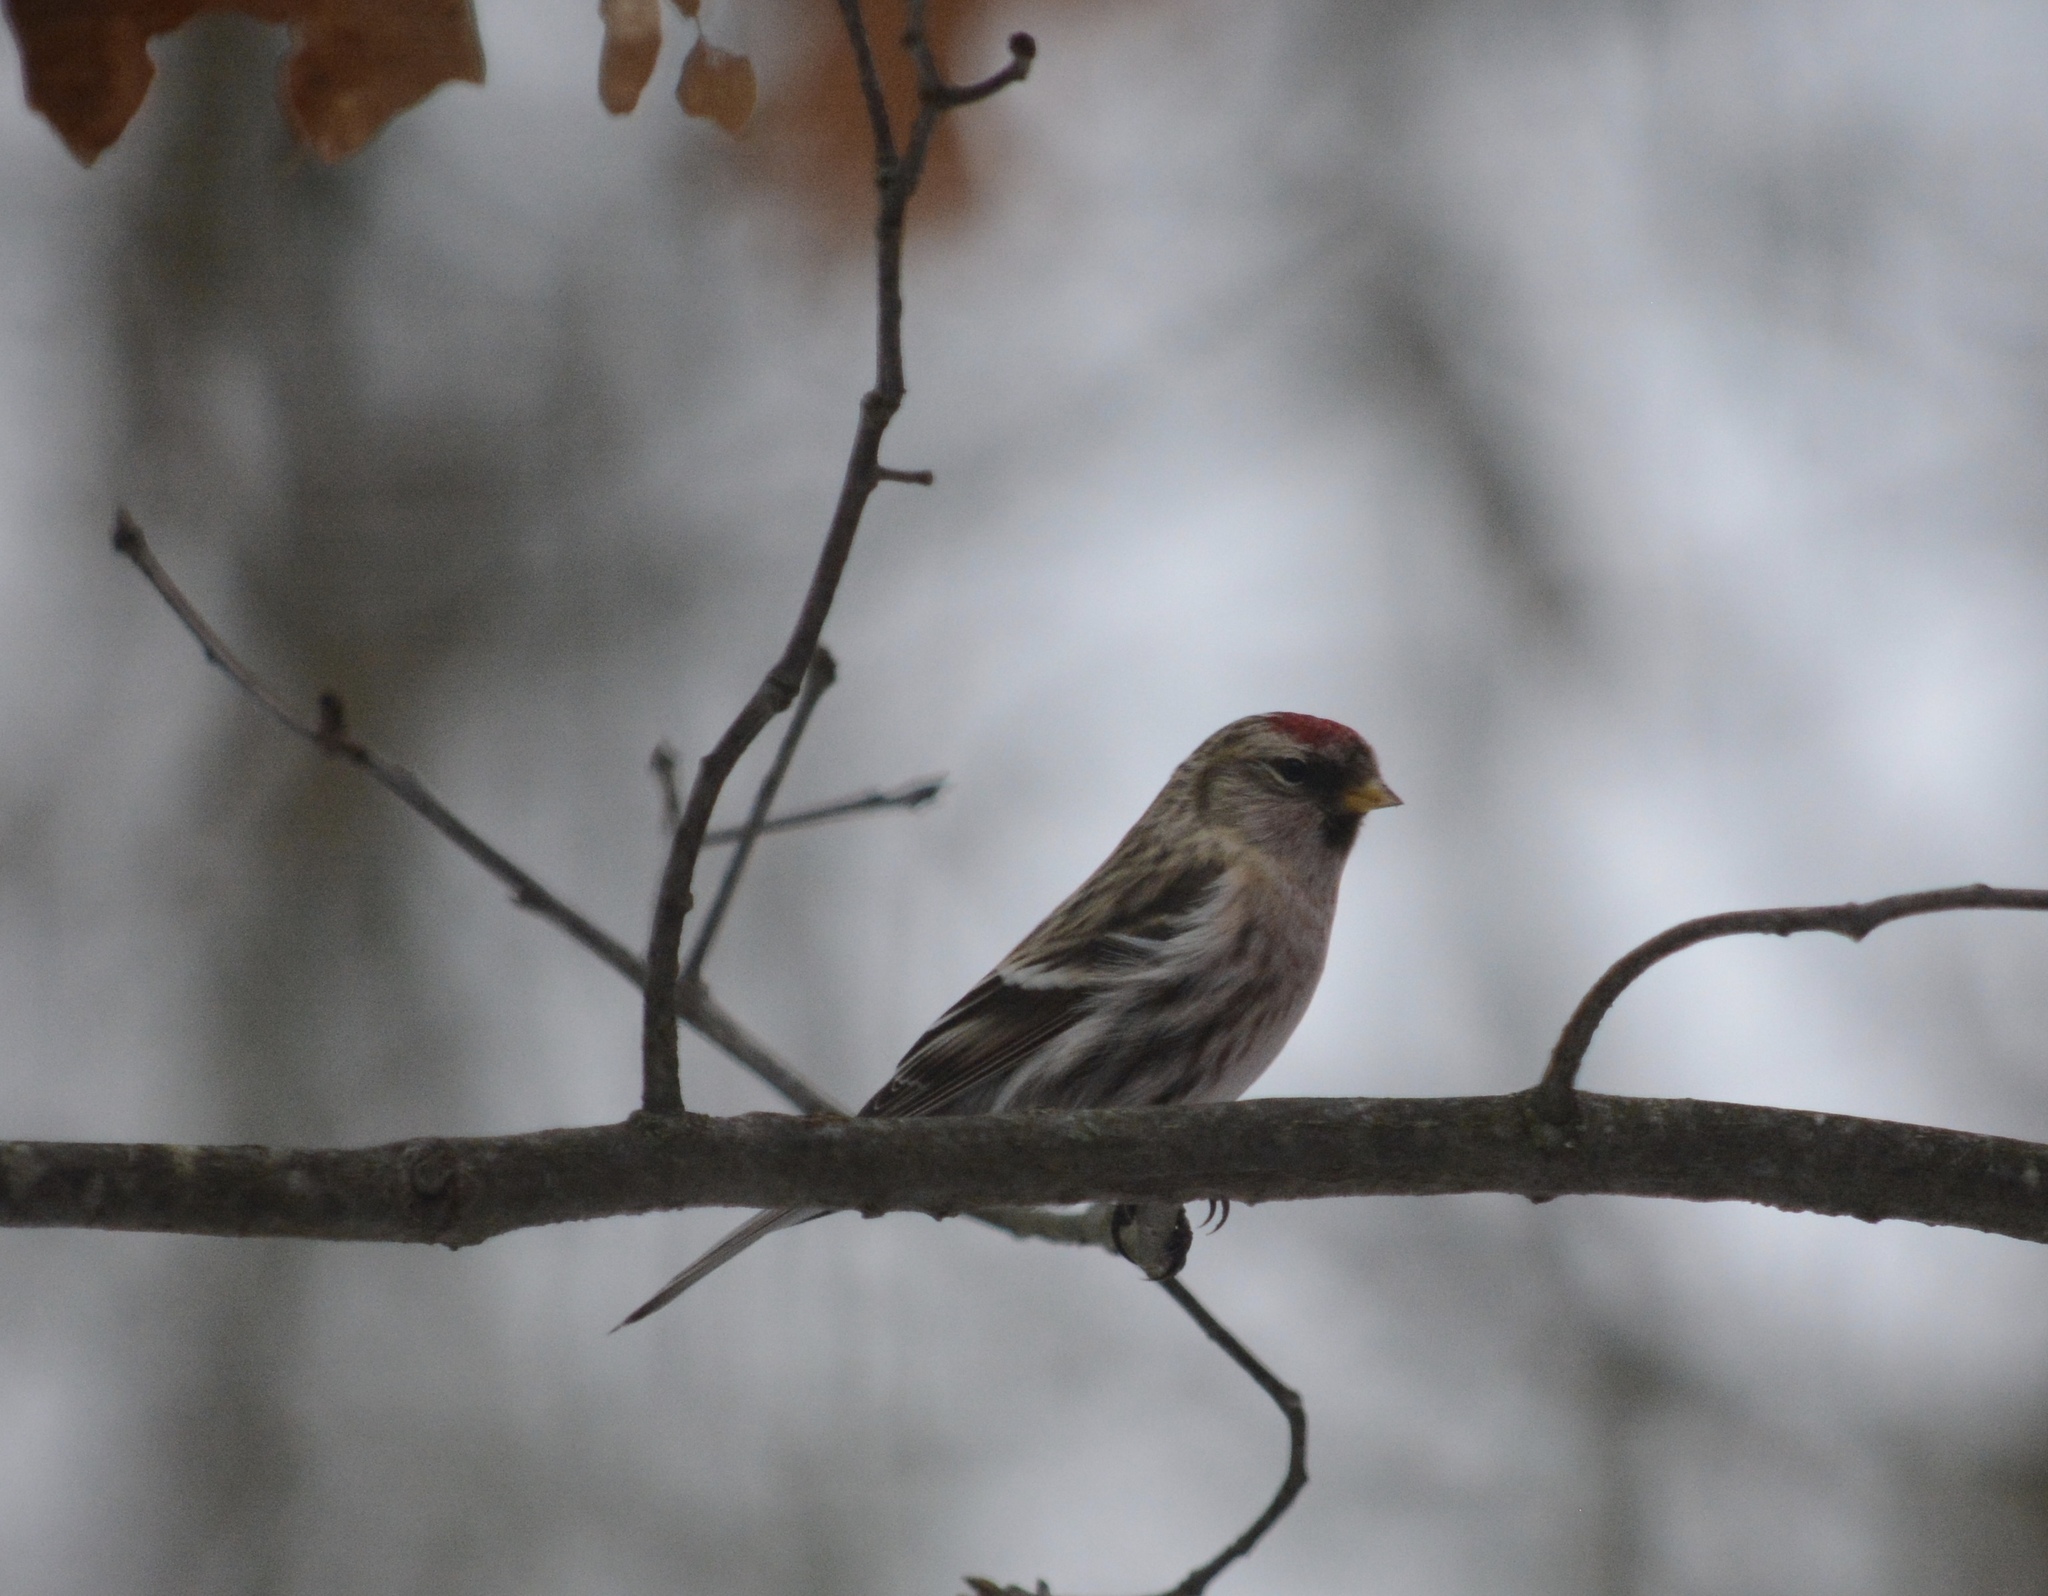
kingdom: Animalia
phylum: Chordata
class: Aves
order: Passeriformes
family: Fringillidae
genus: Acanthis
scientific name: Acanthis flammea
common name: Common redpoll
